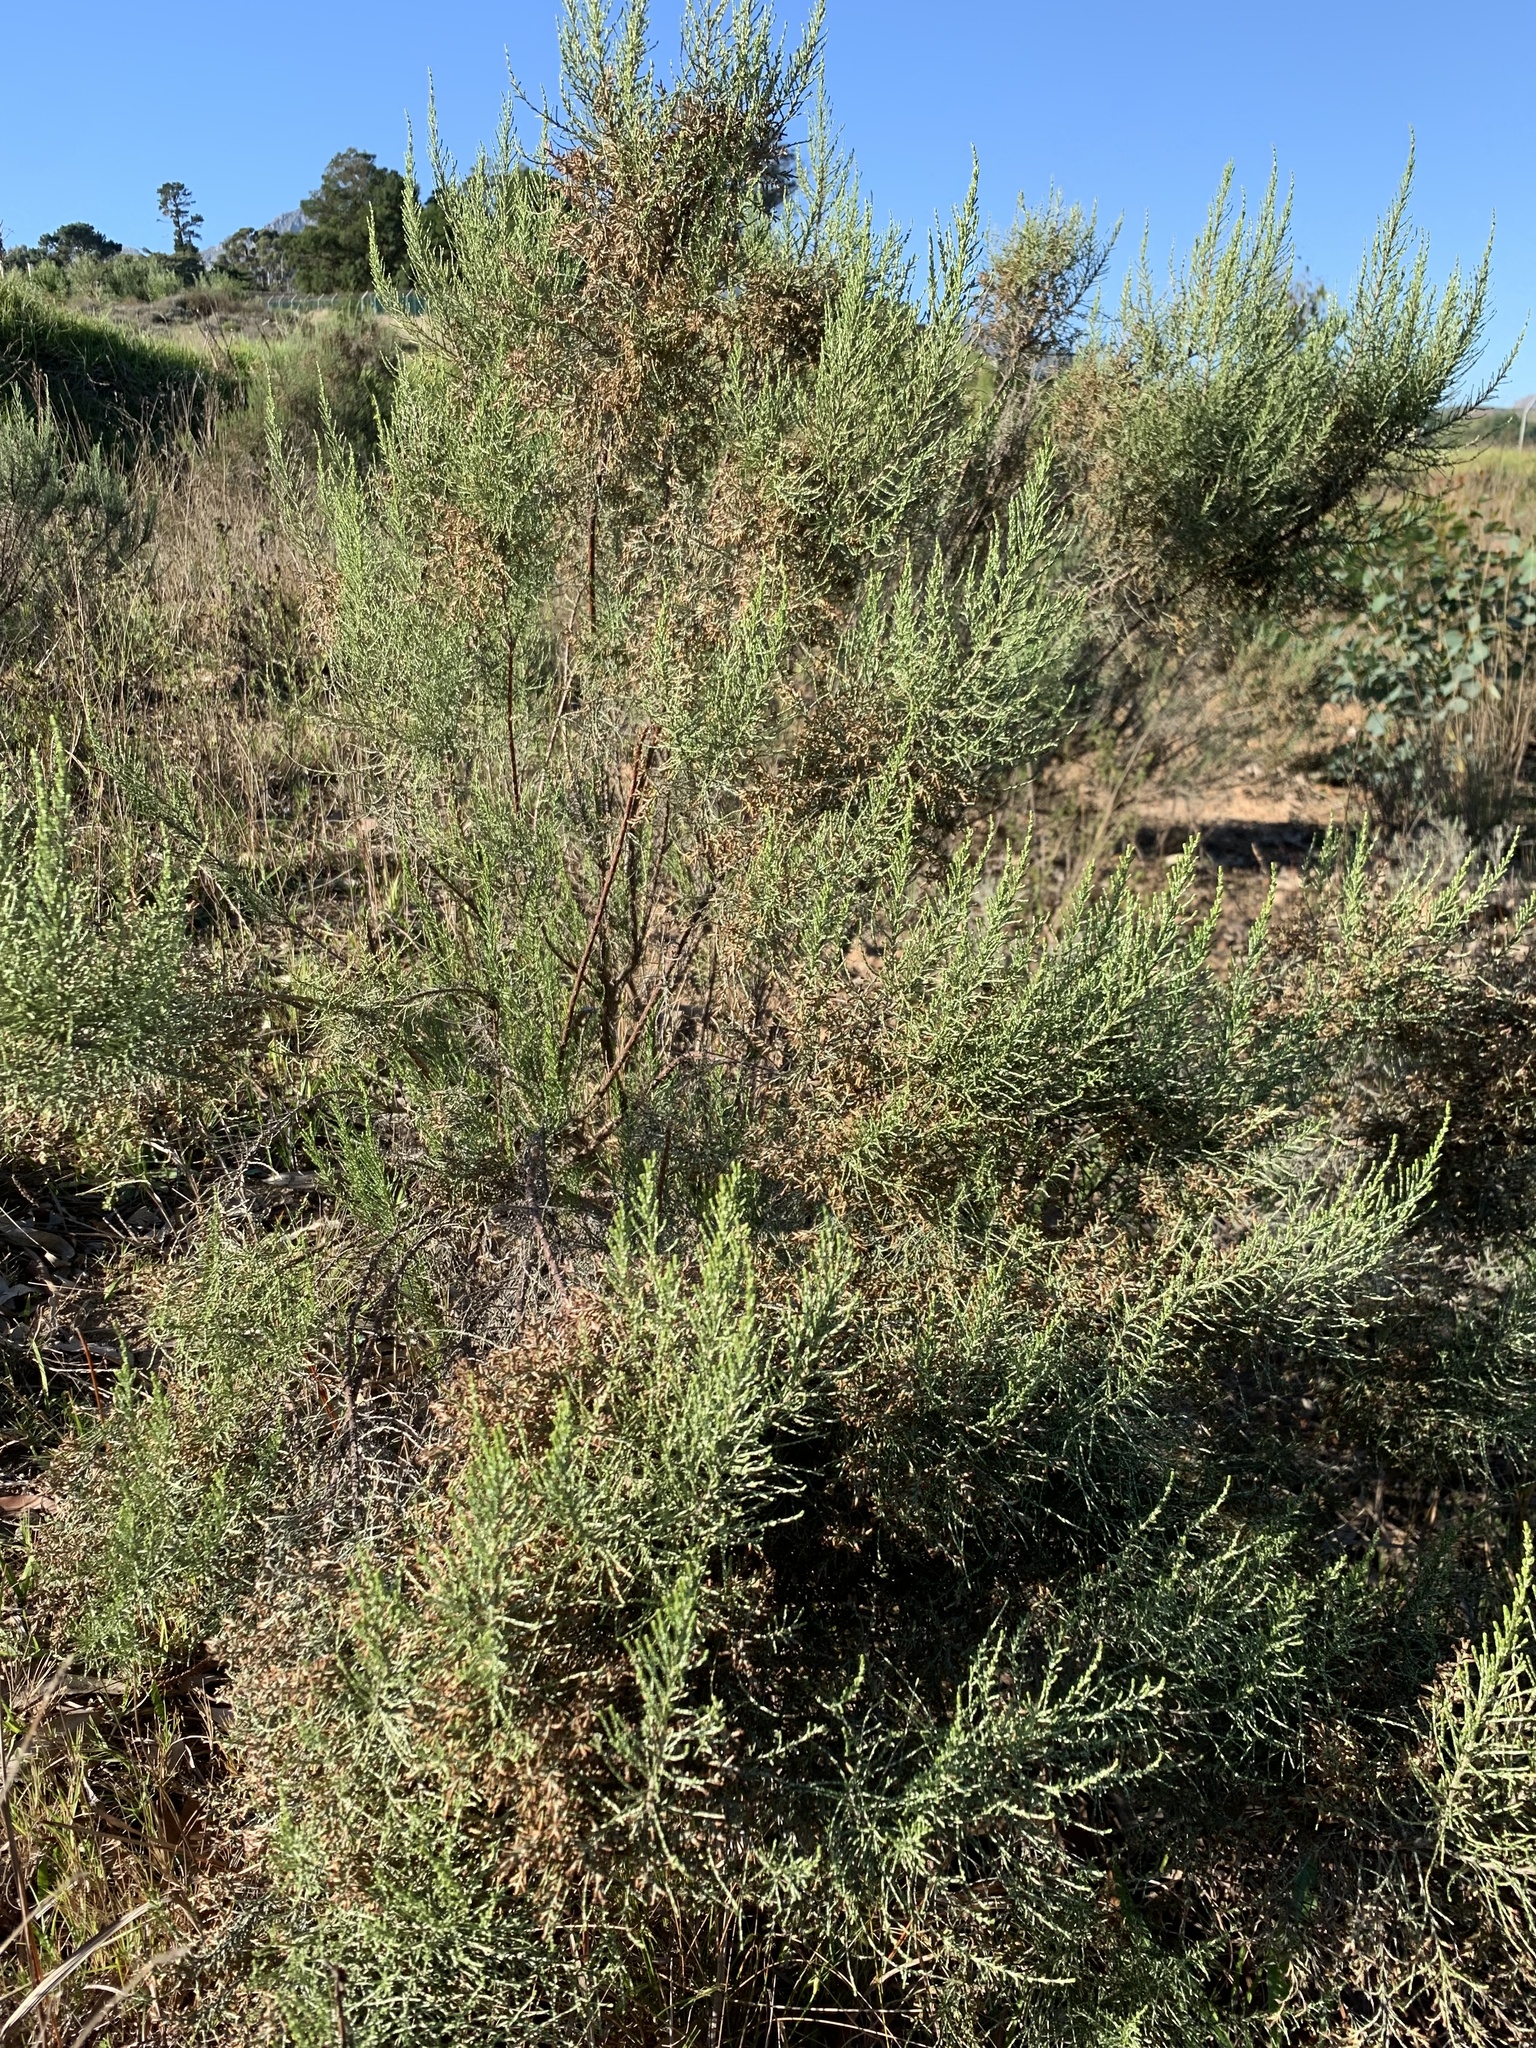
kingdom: Plantae
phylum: Tracheophyta
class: Magnoliopsida
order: Asterales
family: Asteraceae
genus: Dicerothamnus
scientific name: Dicerothamnus rhinocerotis
